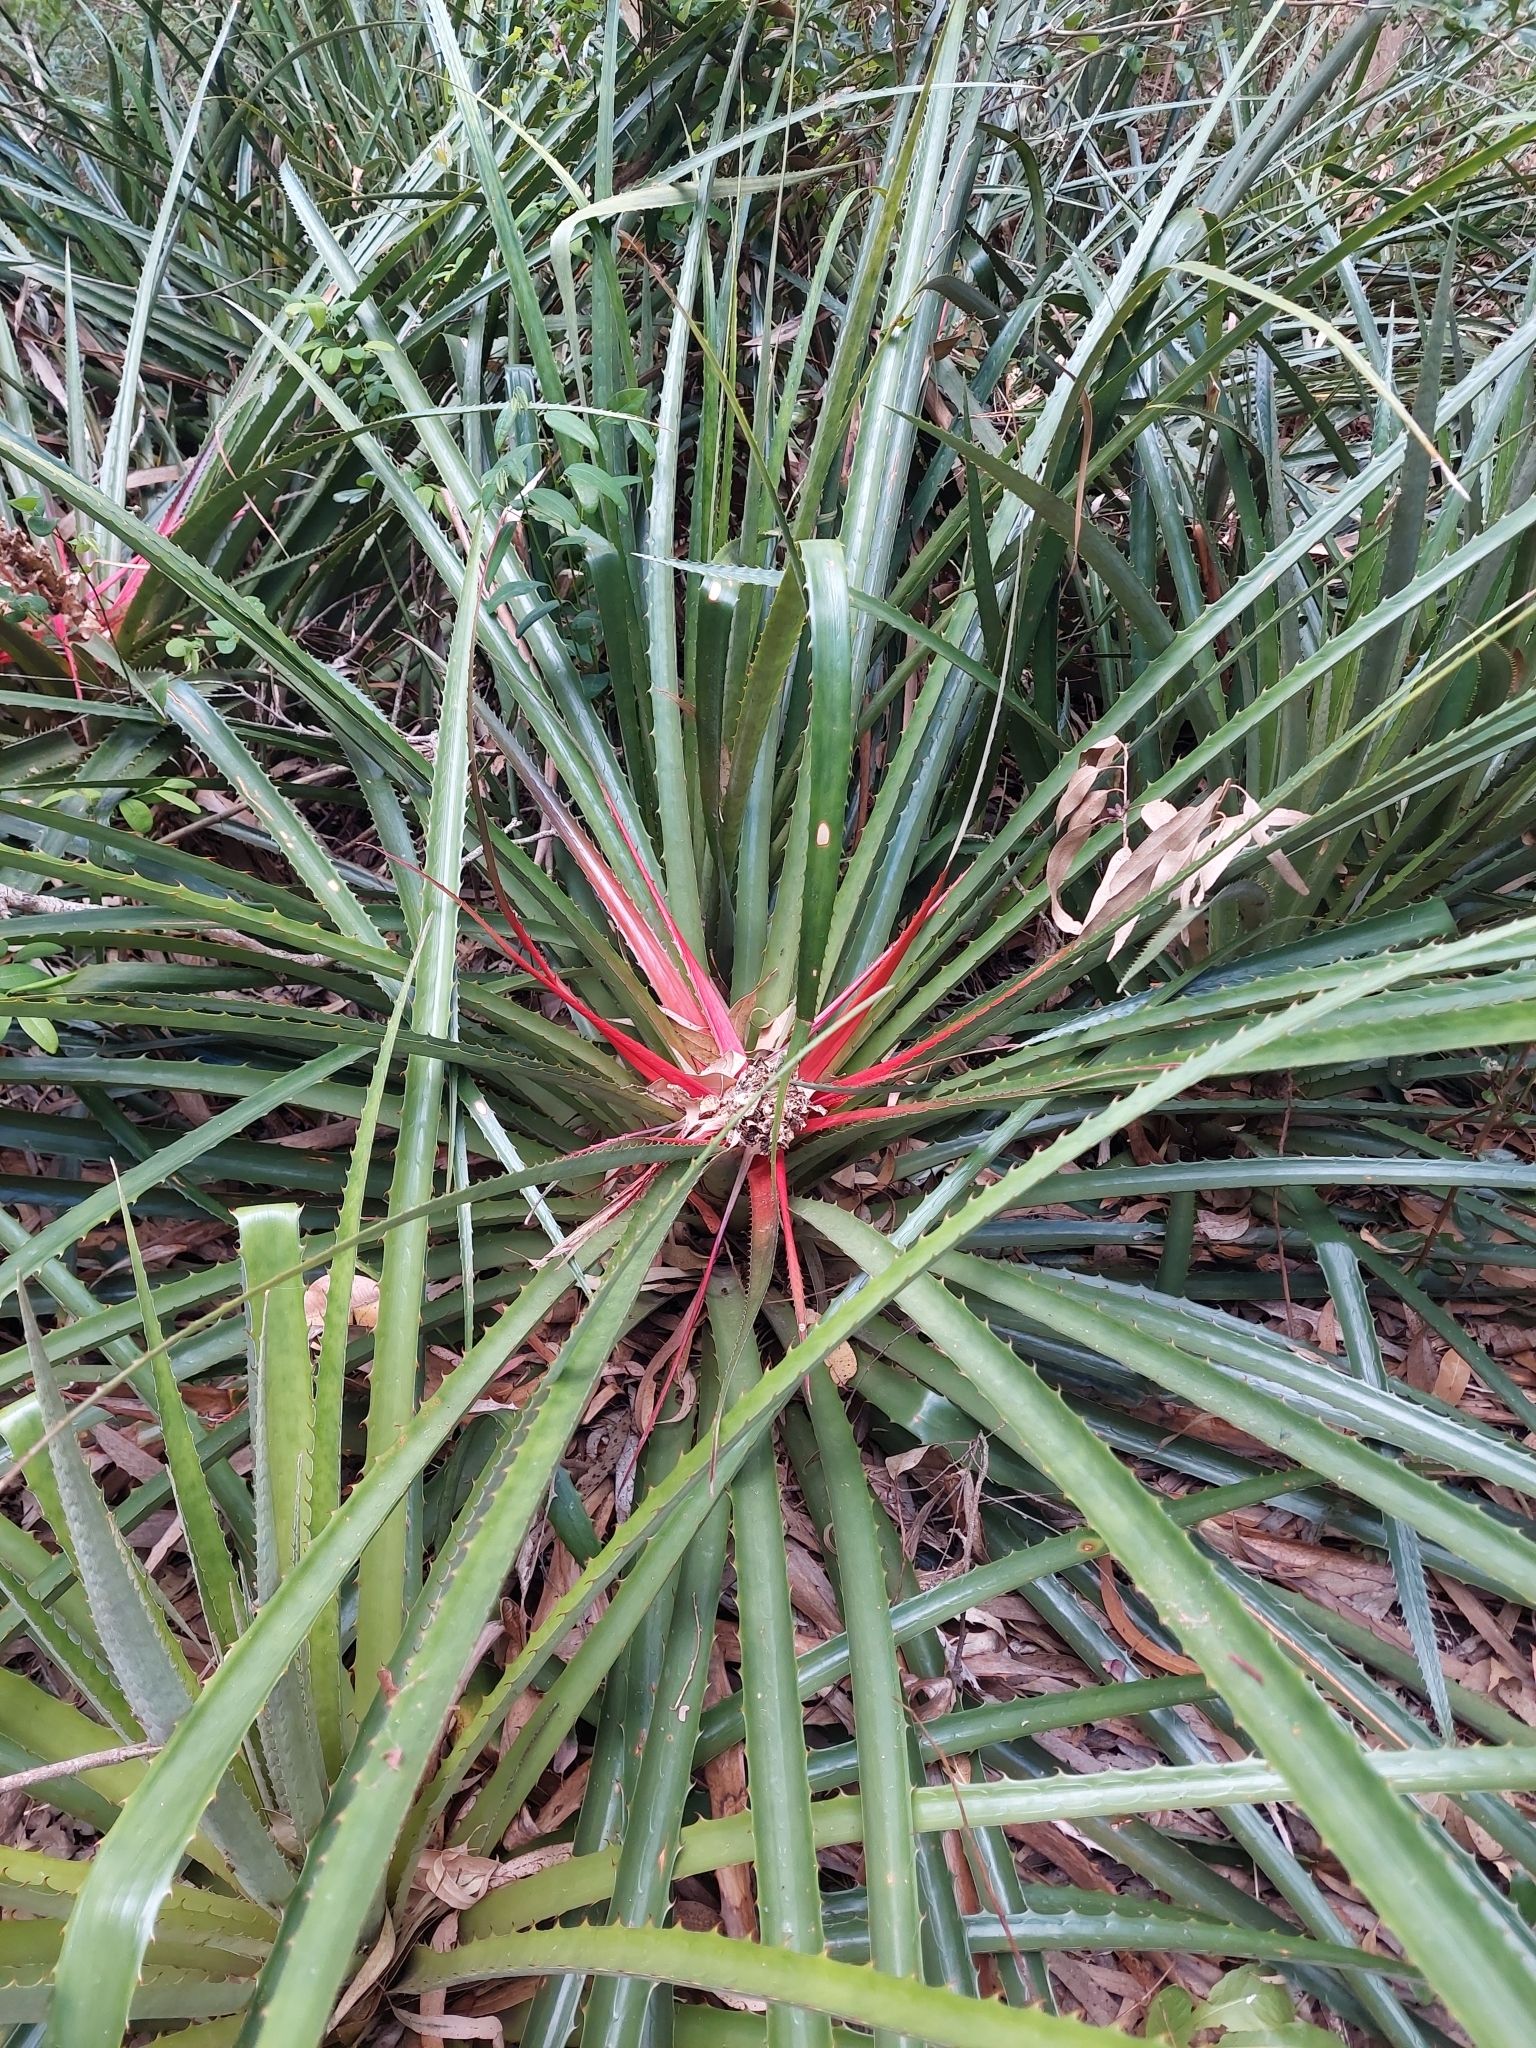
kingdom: Plantae
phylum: Tracheophyta
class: Liliopsida
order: Poales
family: Bromeliaceae
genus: Bromelia
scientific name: Bromelia antiacantha
